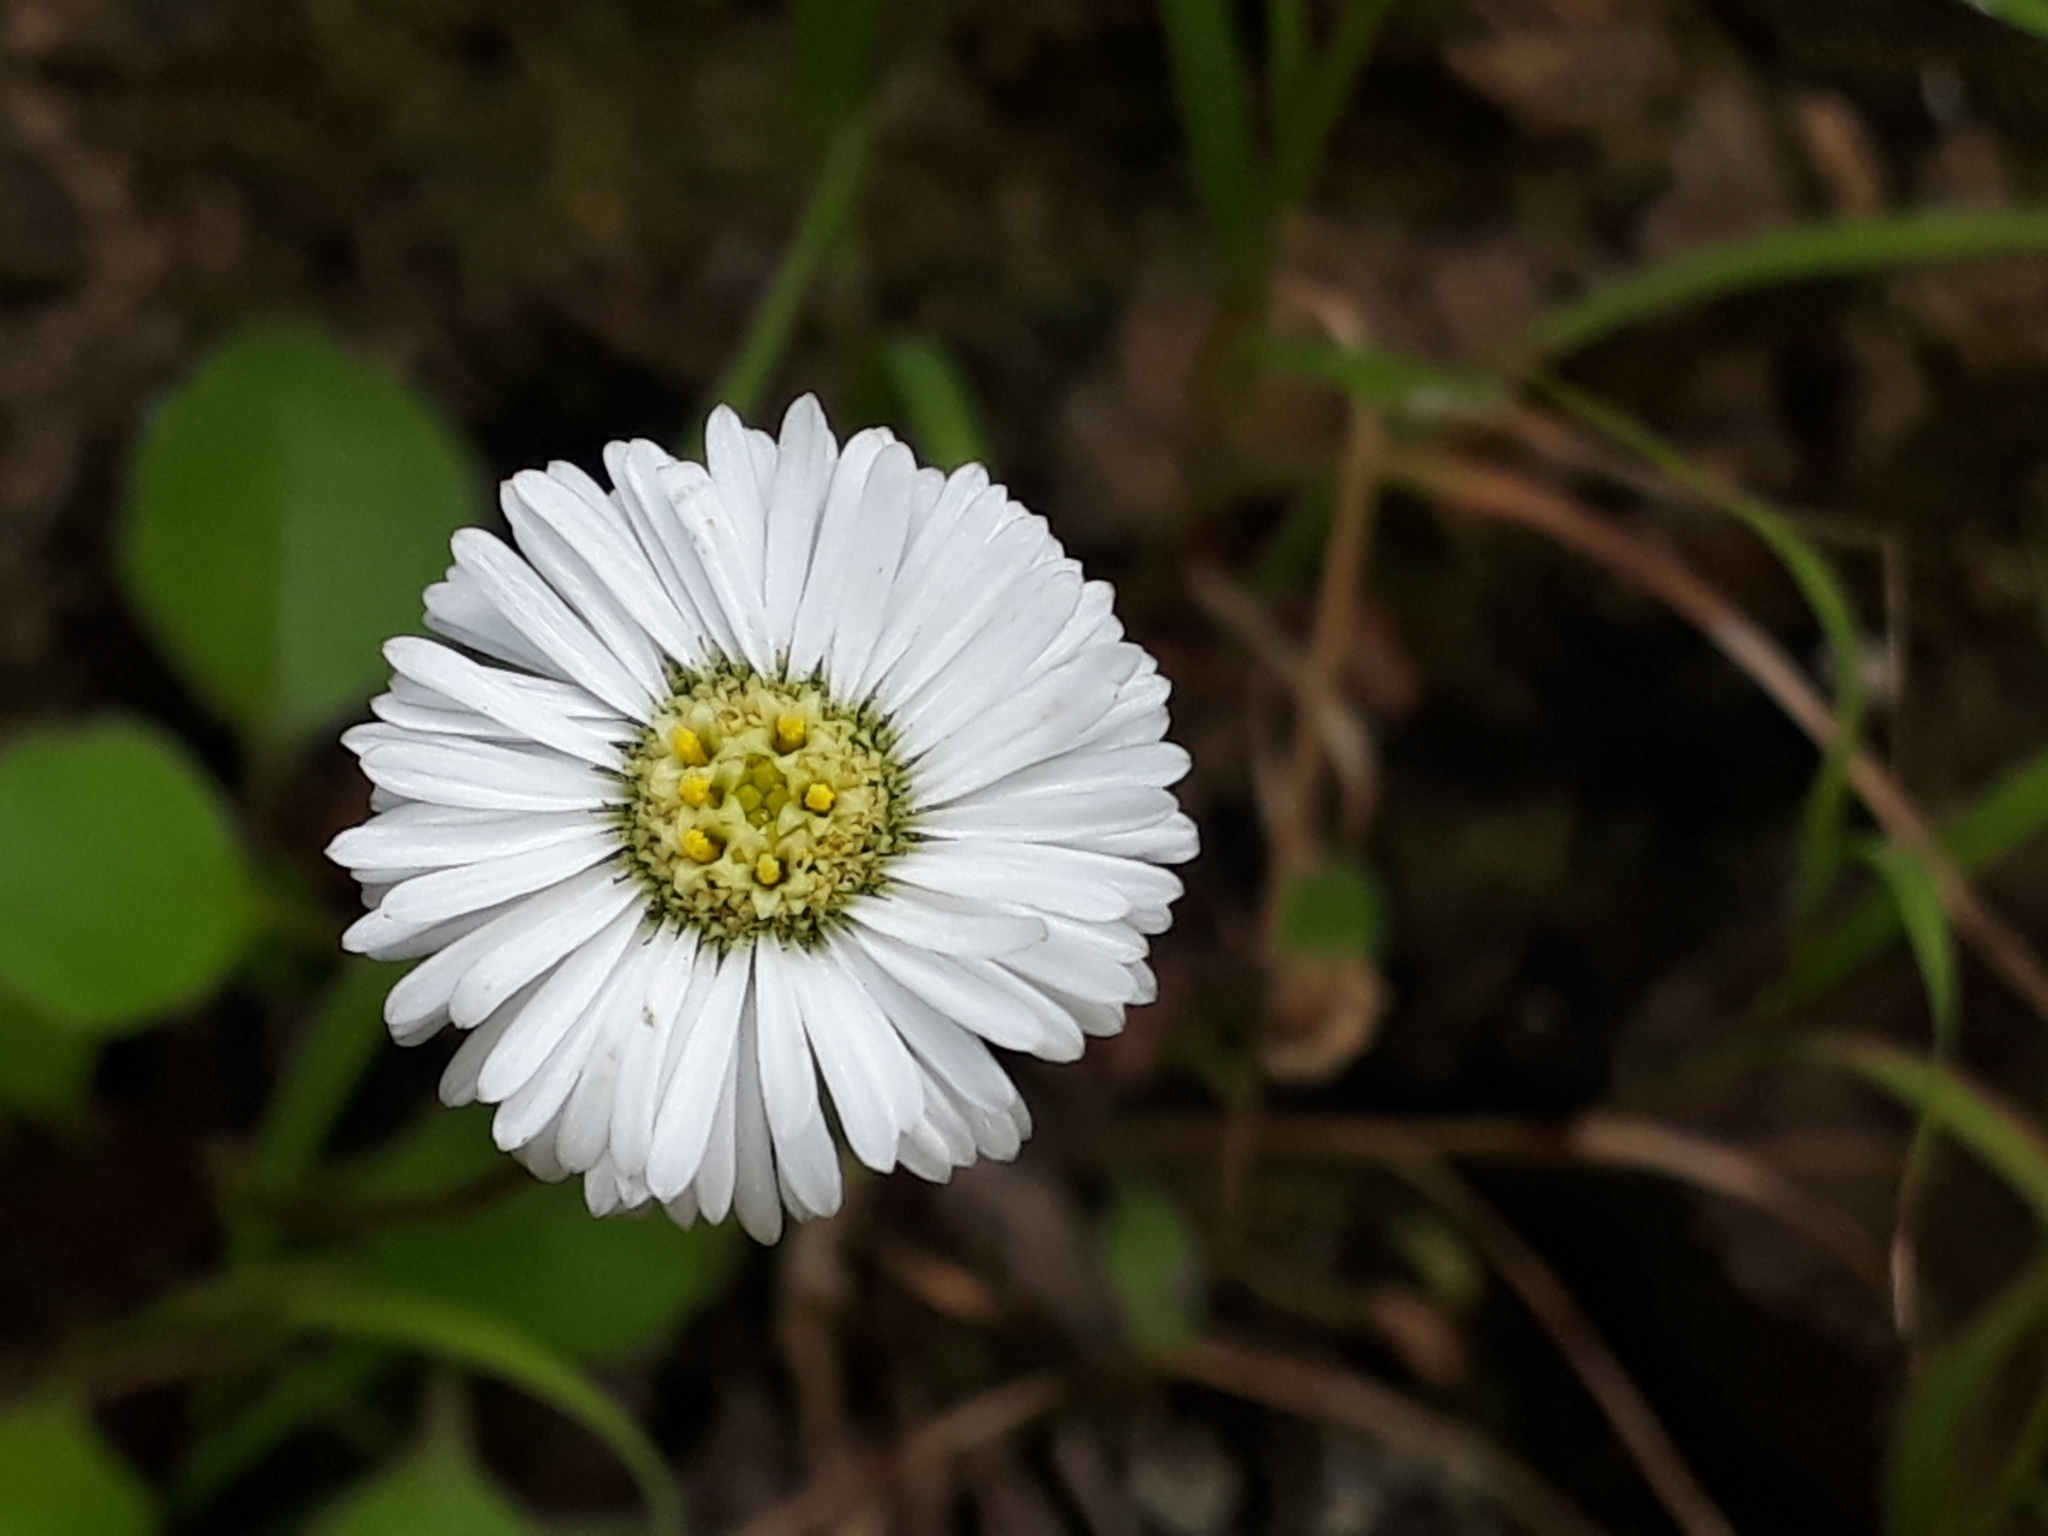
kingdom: Plantae
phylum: Tracheophyta
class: Magnoliopsida
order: Asterales
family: Asteraceae
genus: Lagenophora
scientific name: Lagenophora pumila
